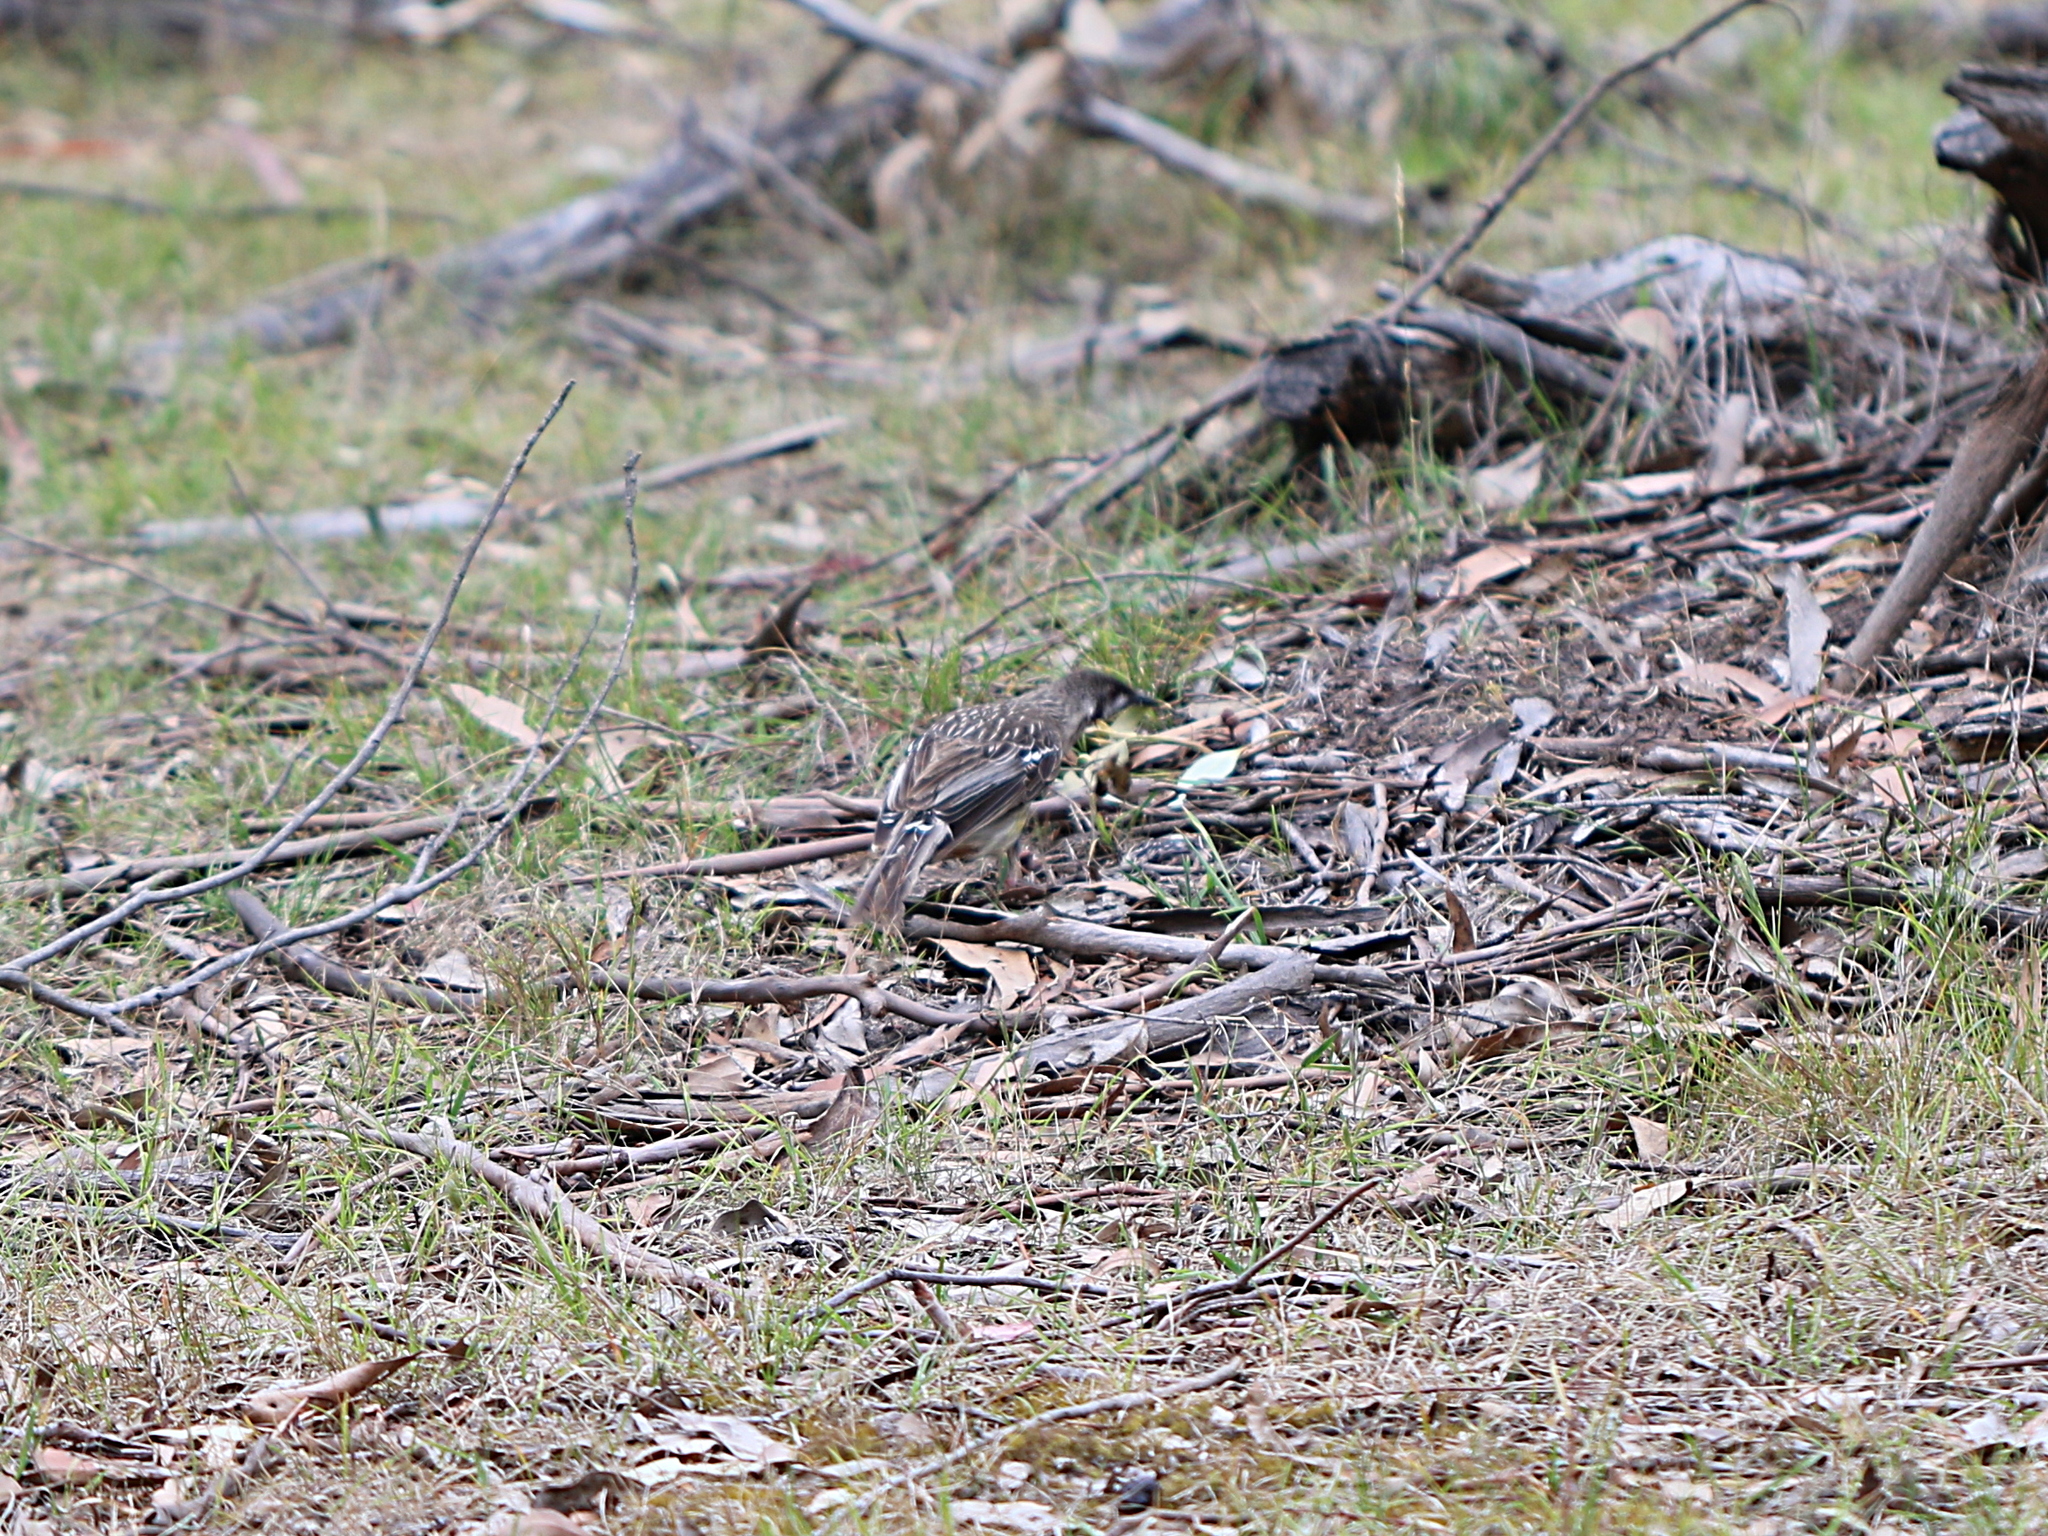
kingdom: Animalia
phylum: Chordata
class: Aves
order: Passeriformes
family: Meliphagidae
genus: Anthochaera
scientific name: Anthochaera carunculata
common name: Red wattlebird
